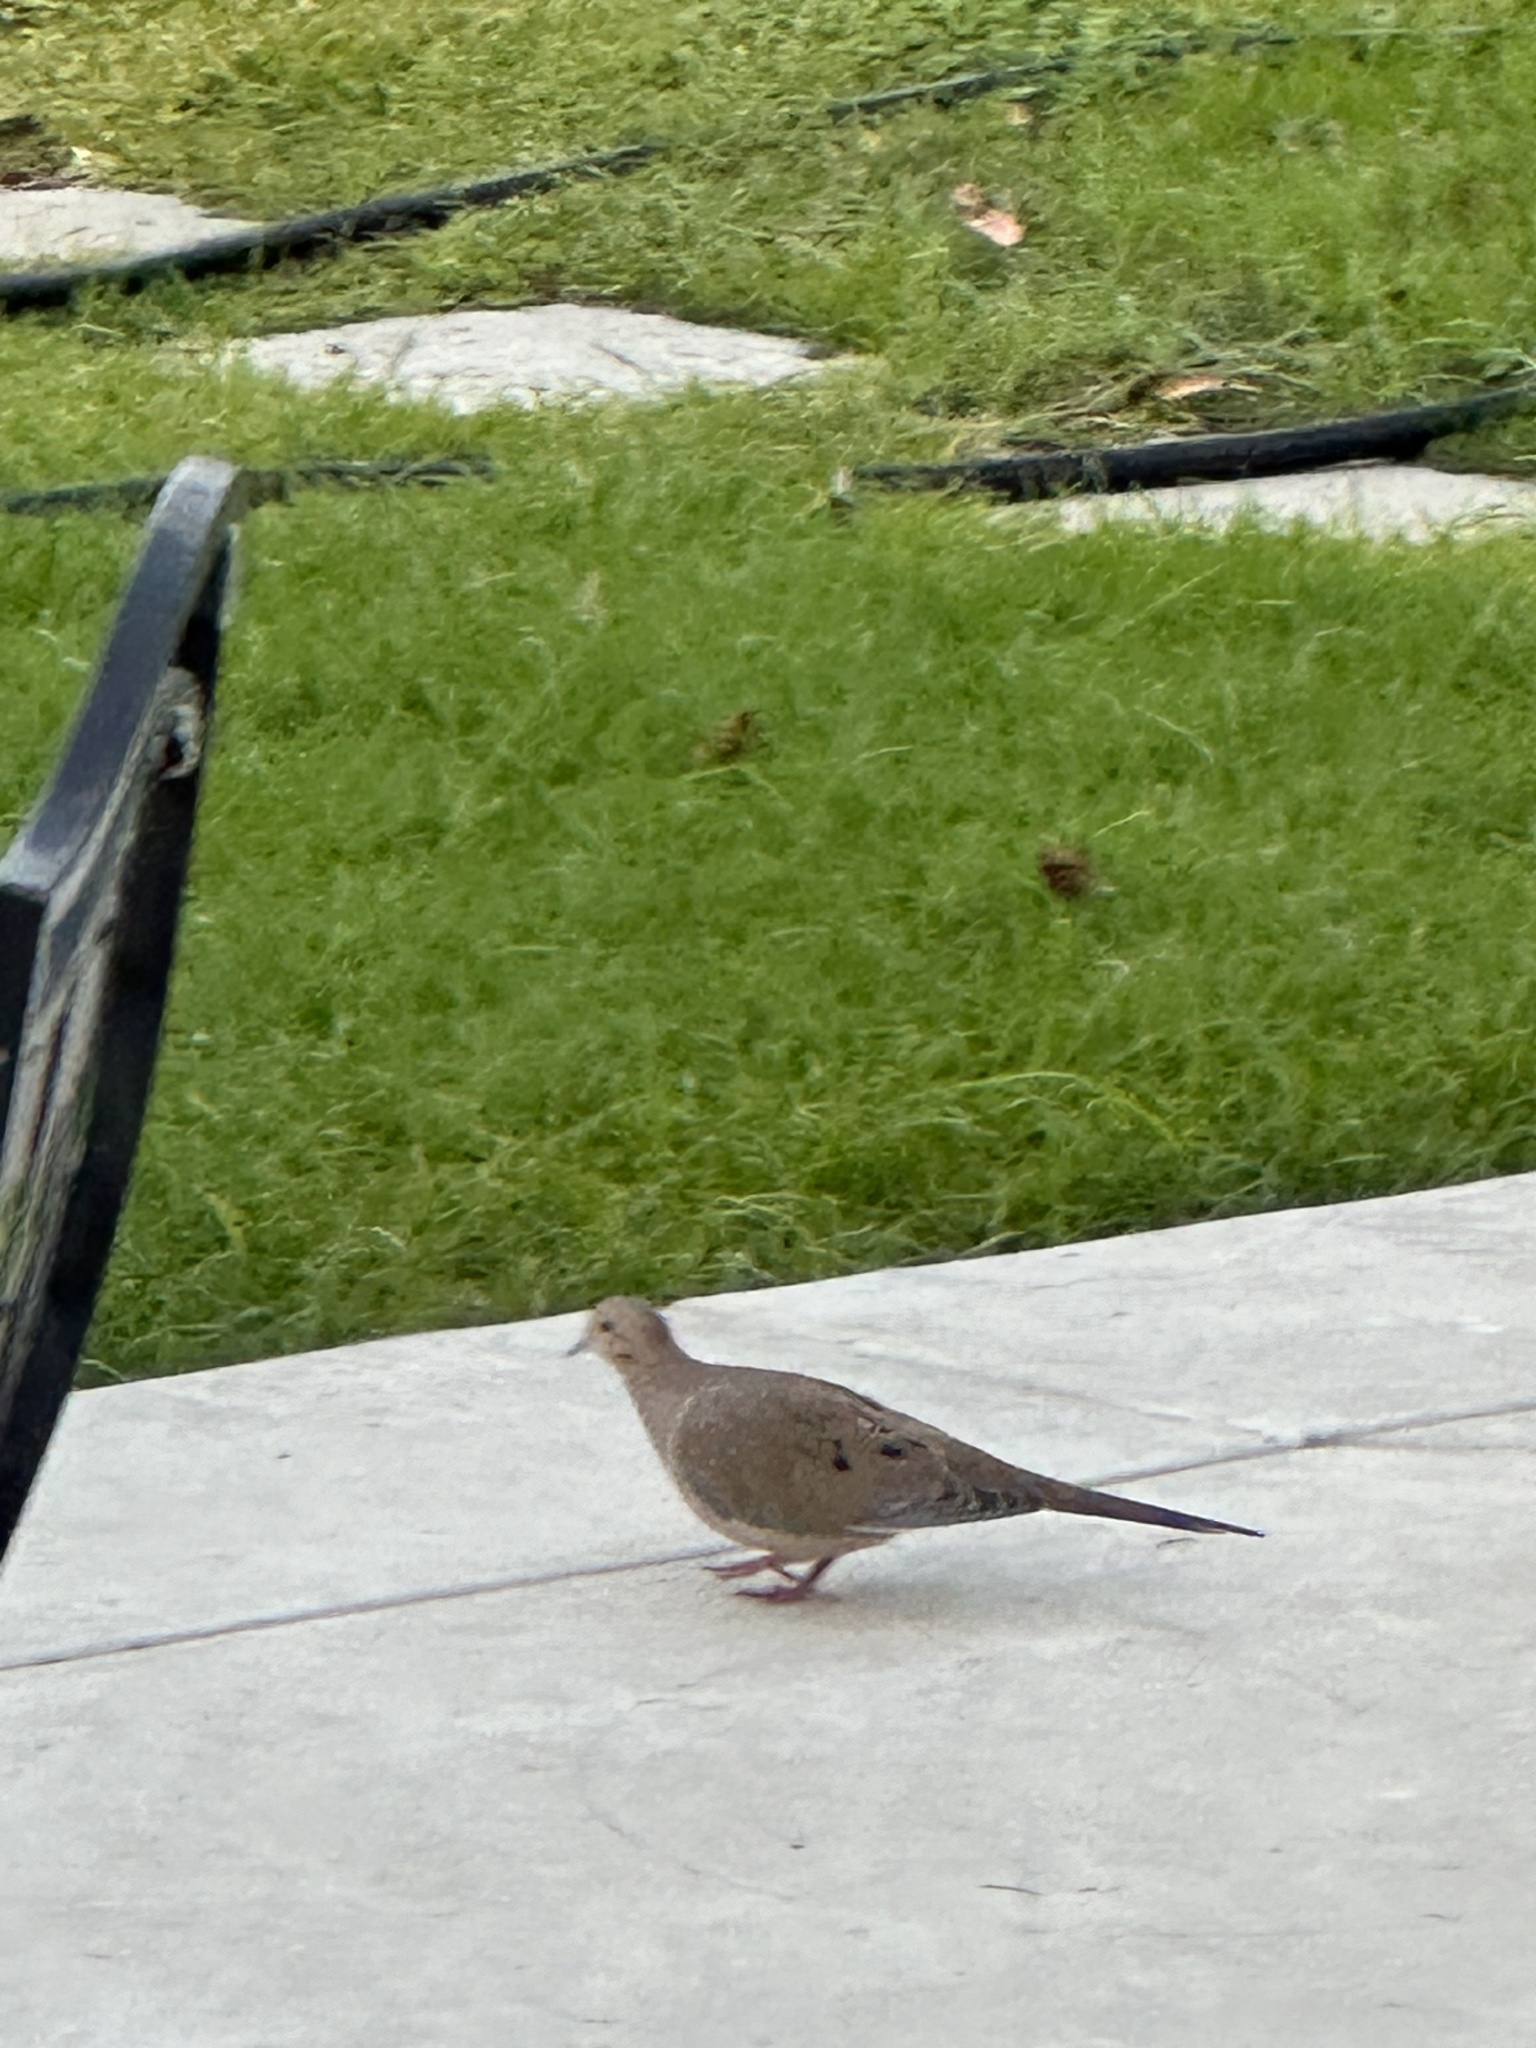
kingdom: Animalia
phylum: Chordata
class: Aves
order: Columbiformes
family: Columbidae
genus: Zenaida
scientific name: Zenaida macroura
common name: Mourning dove
